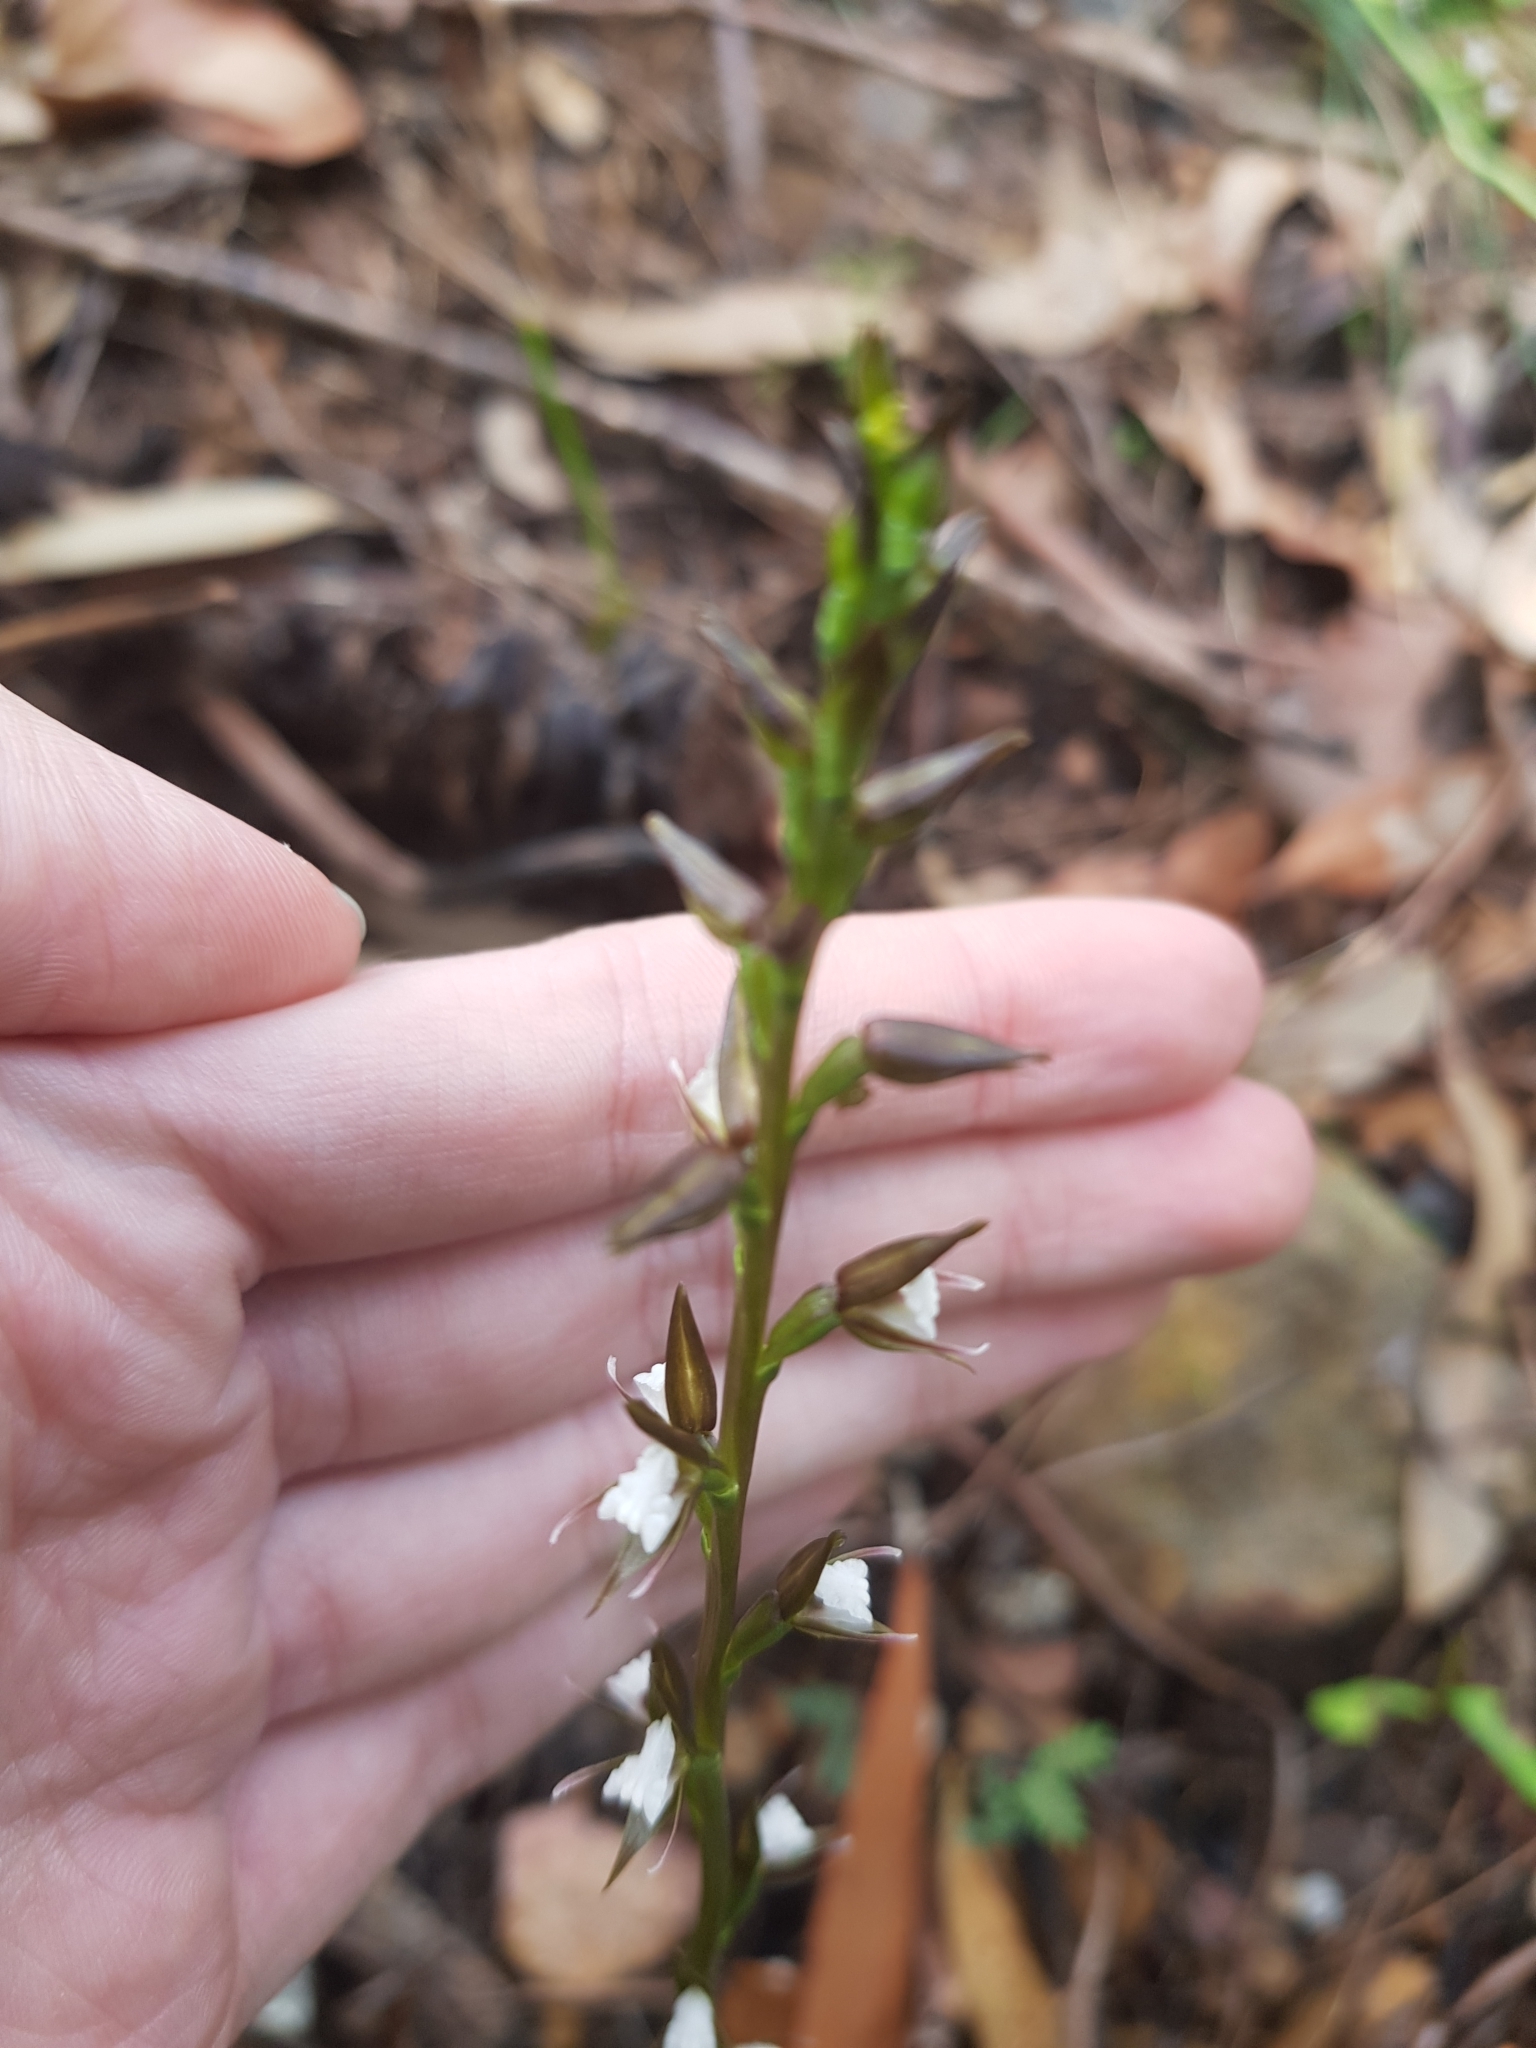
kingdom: Plantae
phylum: Tracheophyta
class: Liliopsida
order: Asparagales
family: Orchidaceae
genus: Prasophyllum
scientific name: Prasophyllum brevilabre
